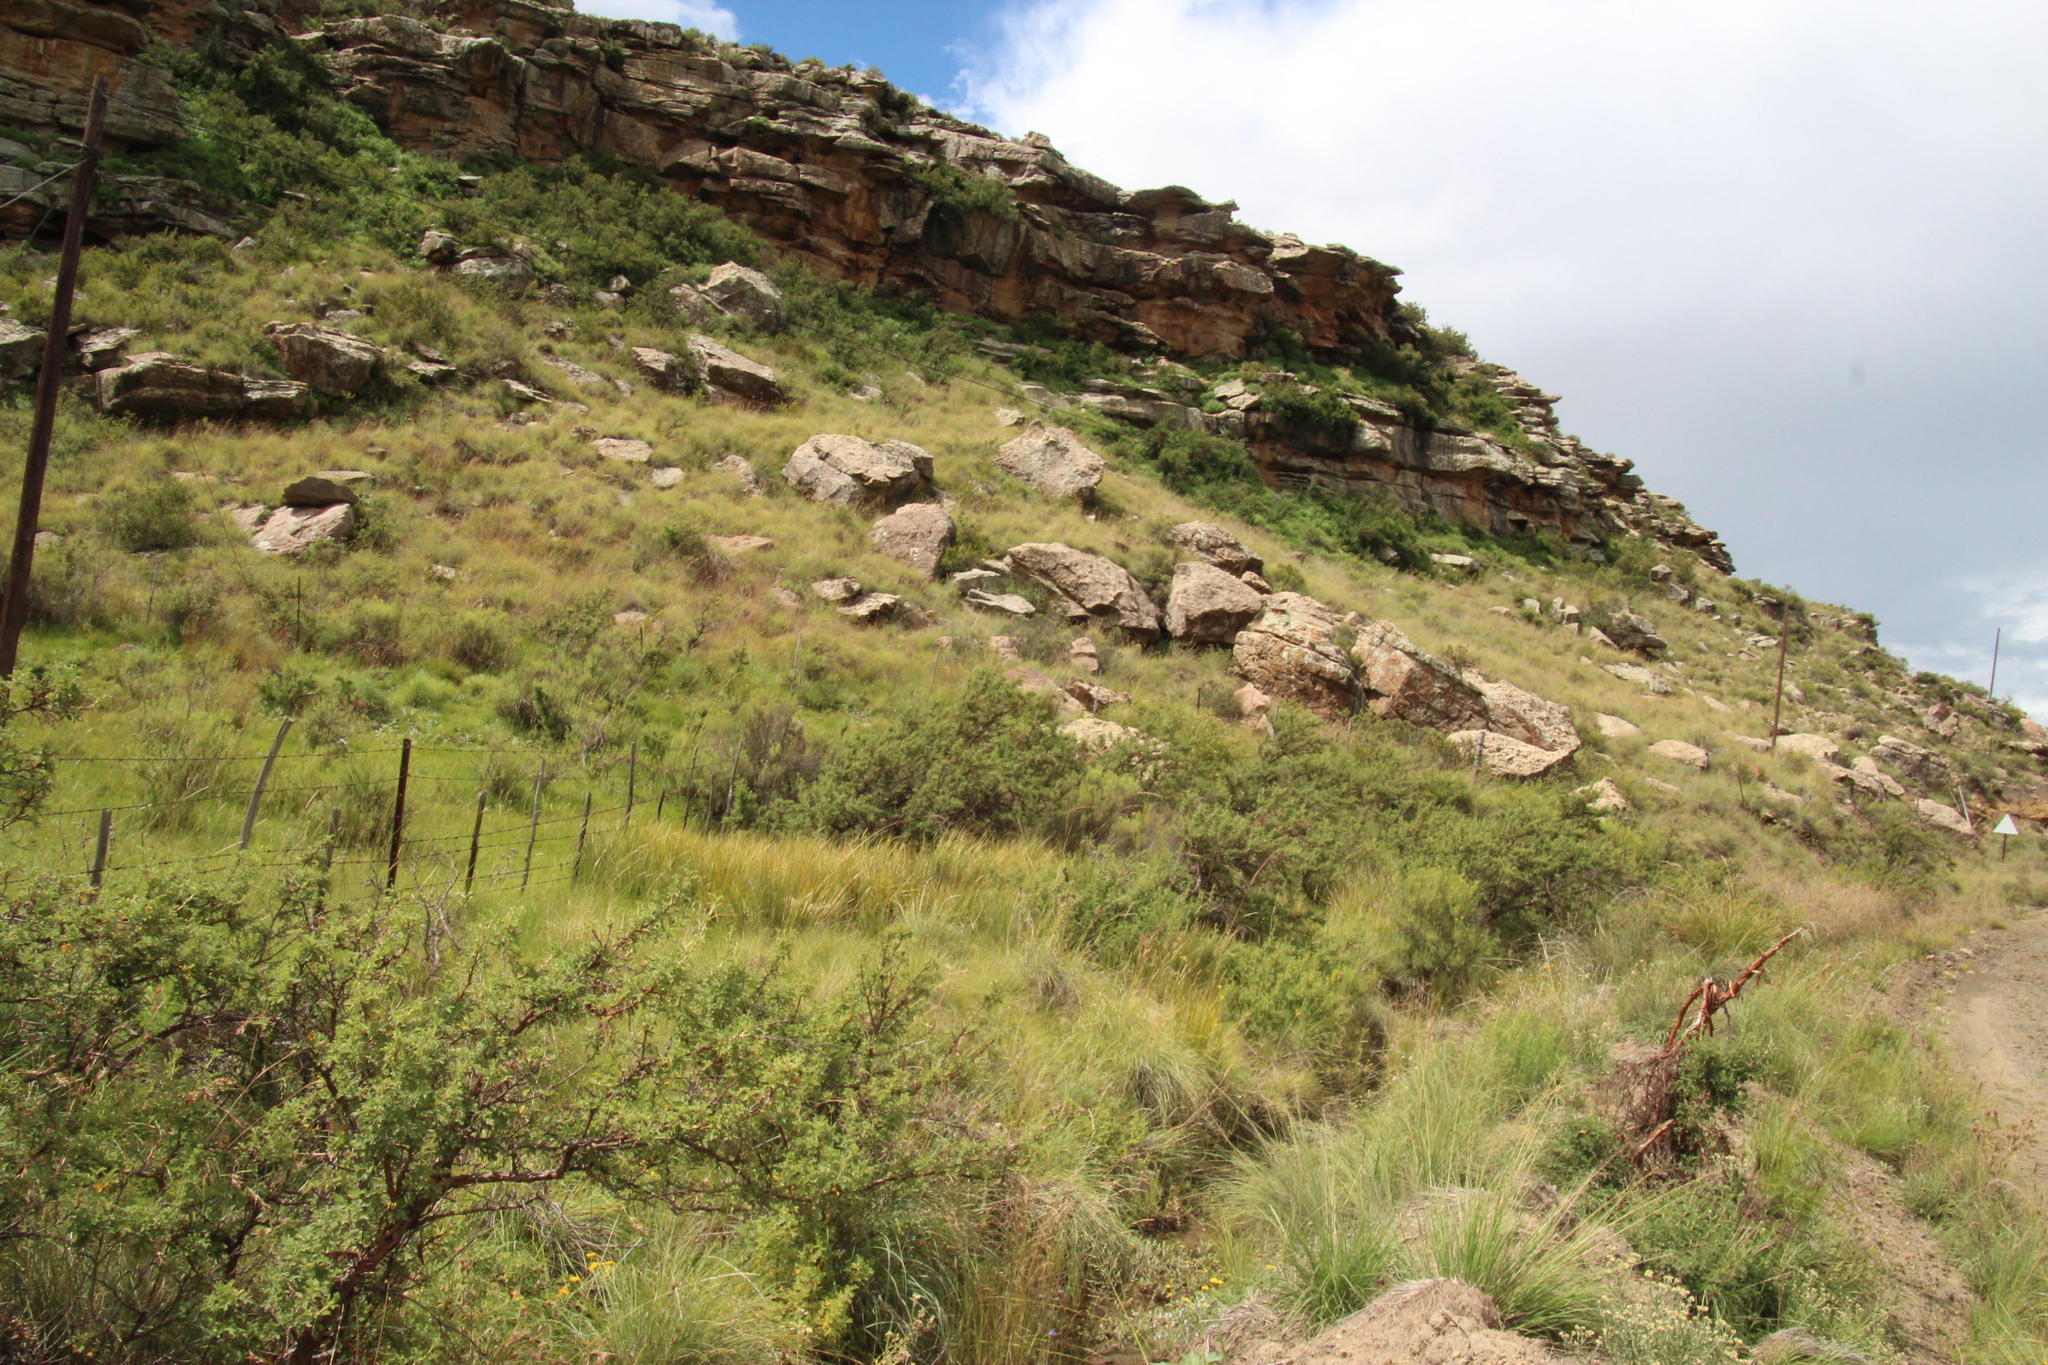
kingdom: Plantae
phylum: Tracheophyta
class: Magnoliopsida
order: Rosales
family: Rosaceae
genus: Leucosidea
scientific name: Leucosidea sericea
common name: Oldwood
